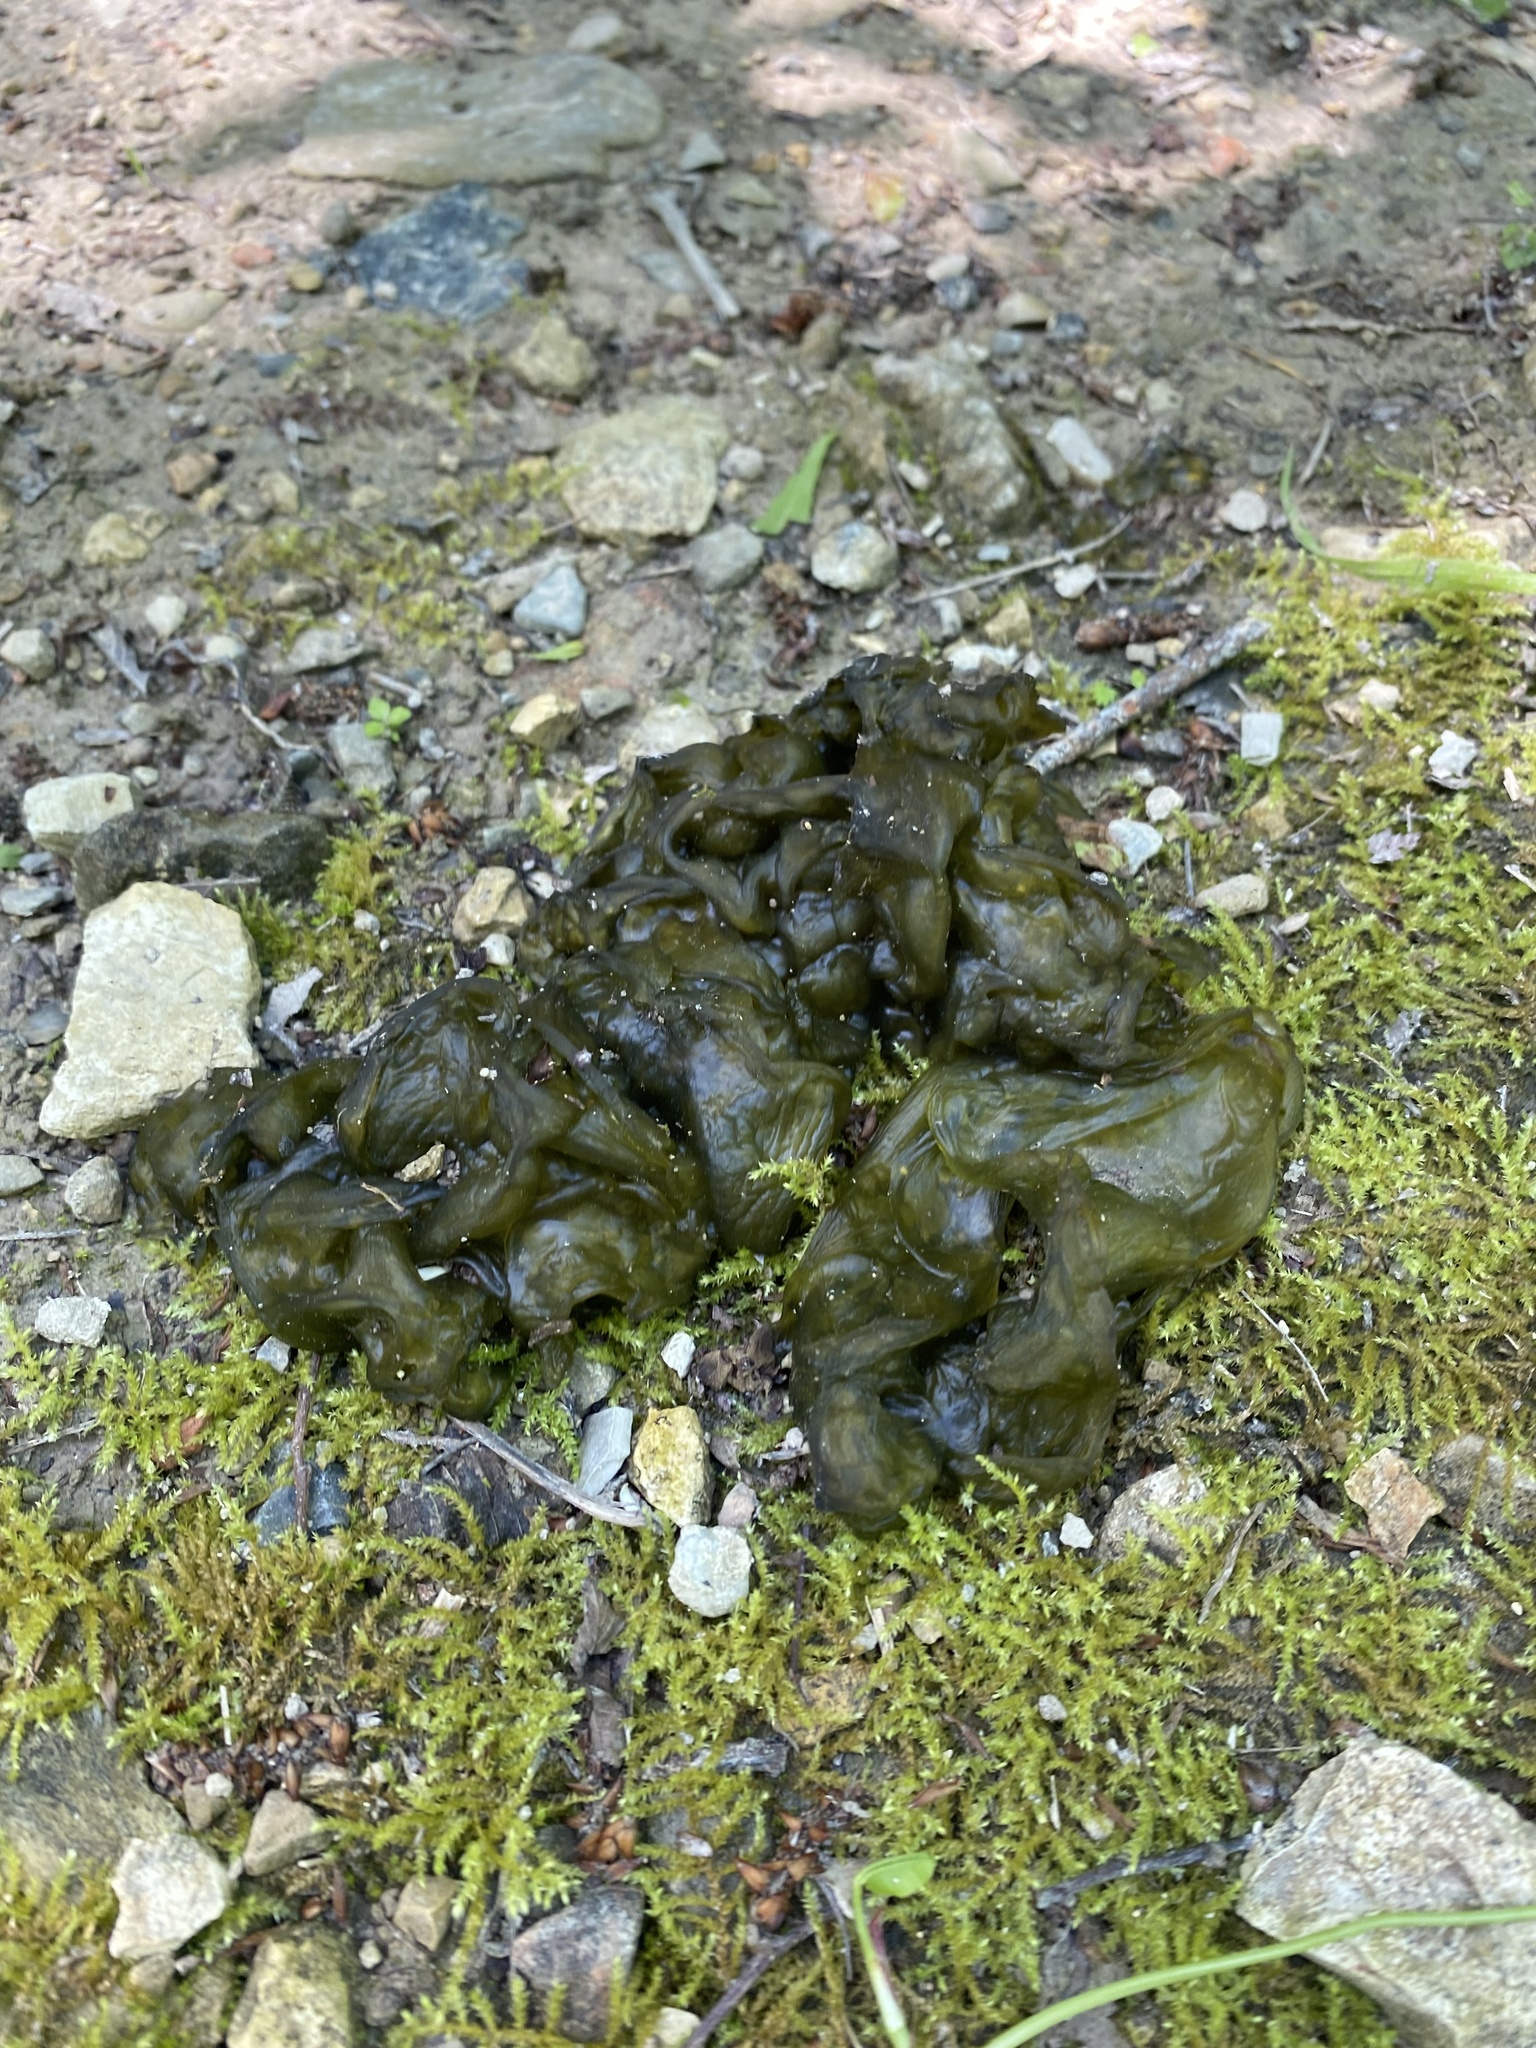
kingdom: Bacteria
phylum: Cyanobacteria
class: Cyanobacteriia
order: Cyanobacteriales
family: Nostocaceae
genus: Nostoc
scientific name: Nostoc commune
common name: Star jelly
